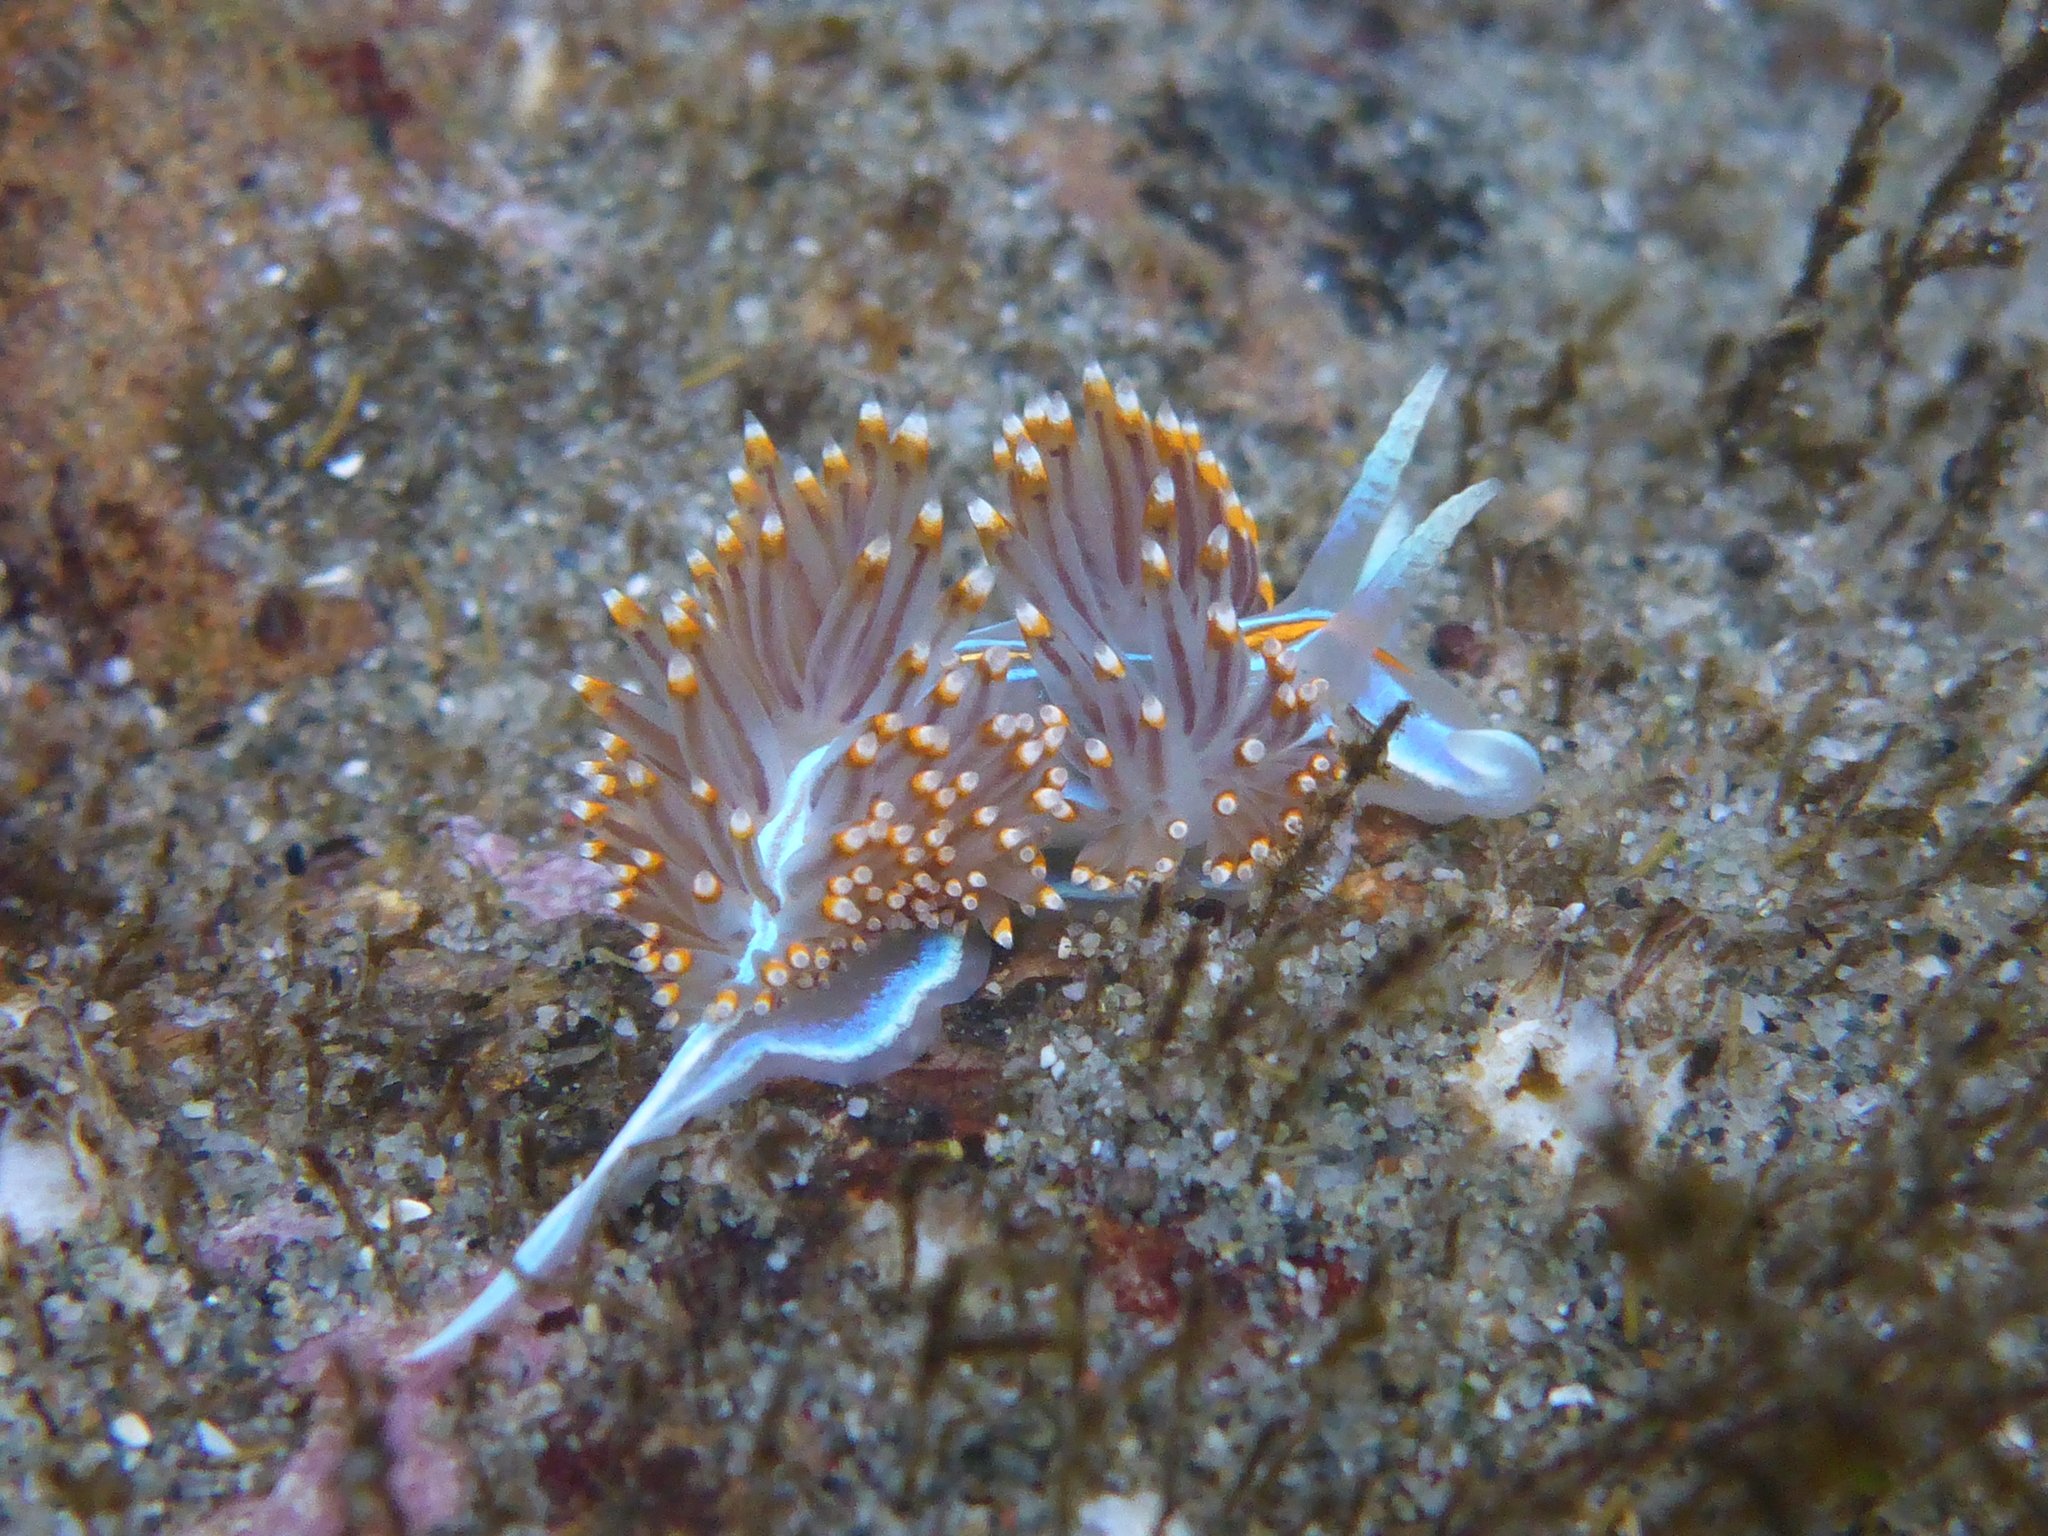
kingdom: Animalia
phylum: Mollusca
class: Gastropoda
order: Nudibranchia
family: Myrrhinidae
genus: Hermissenda
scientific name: Hermissenda opalescens
